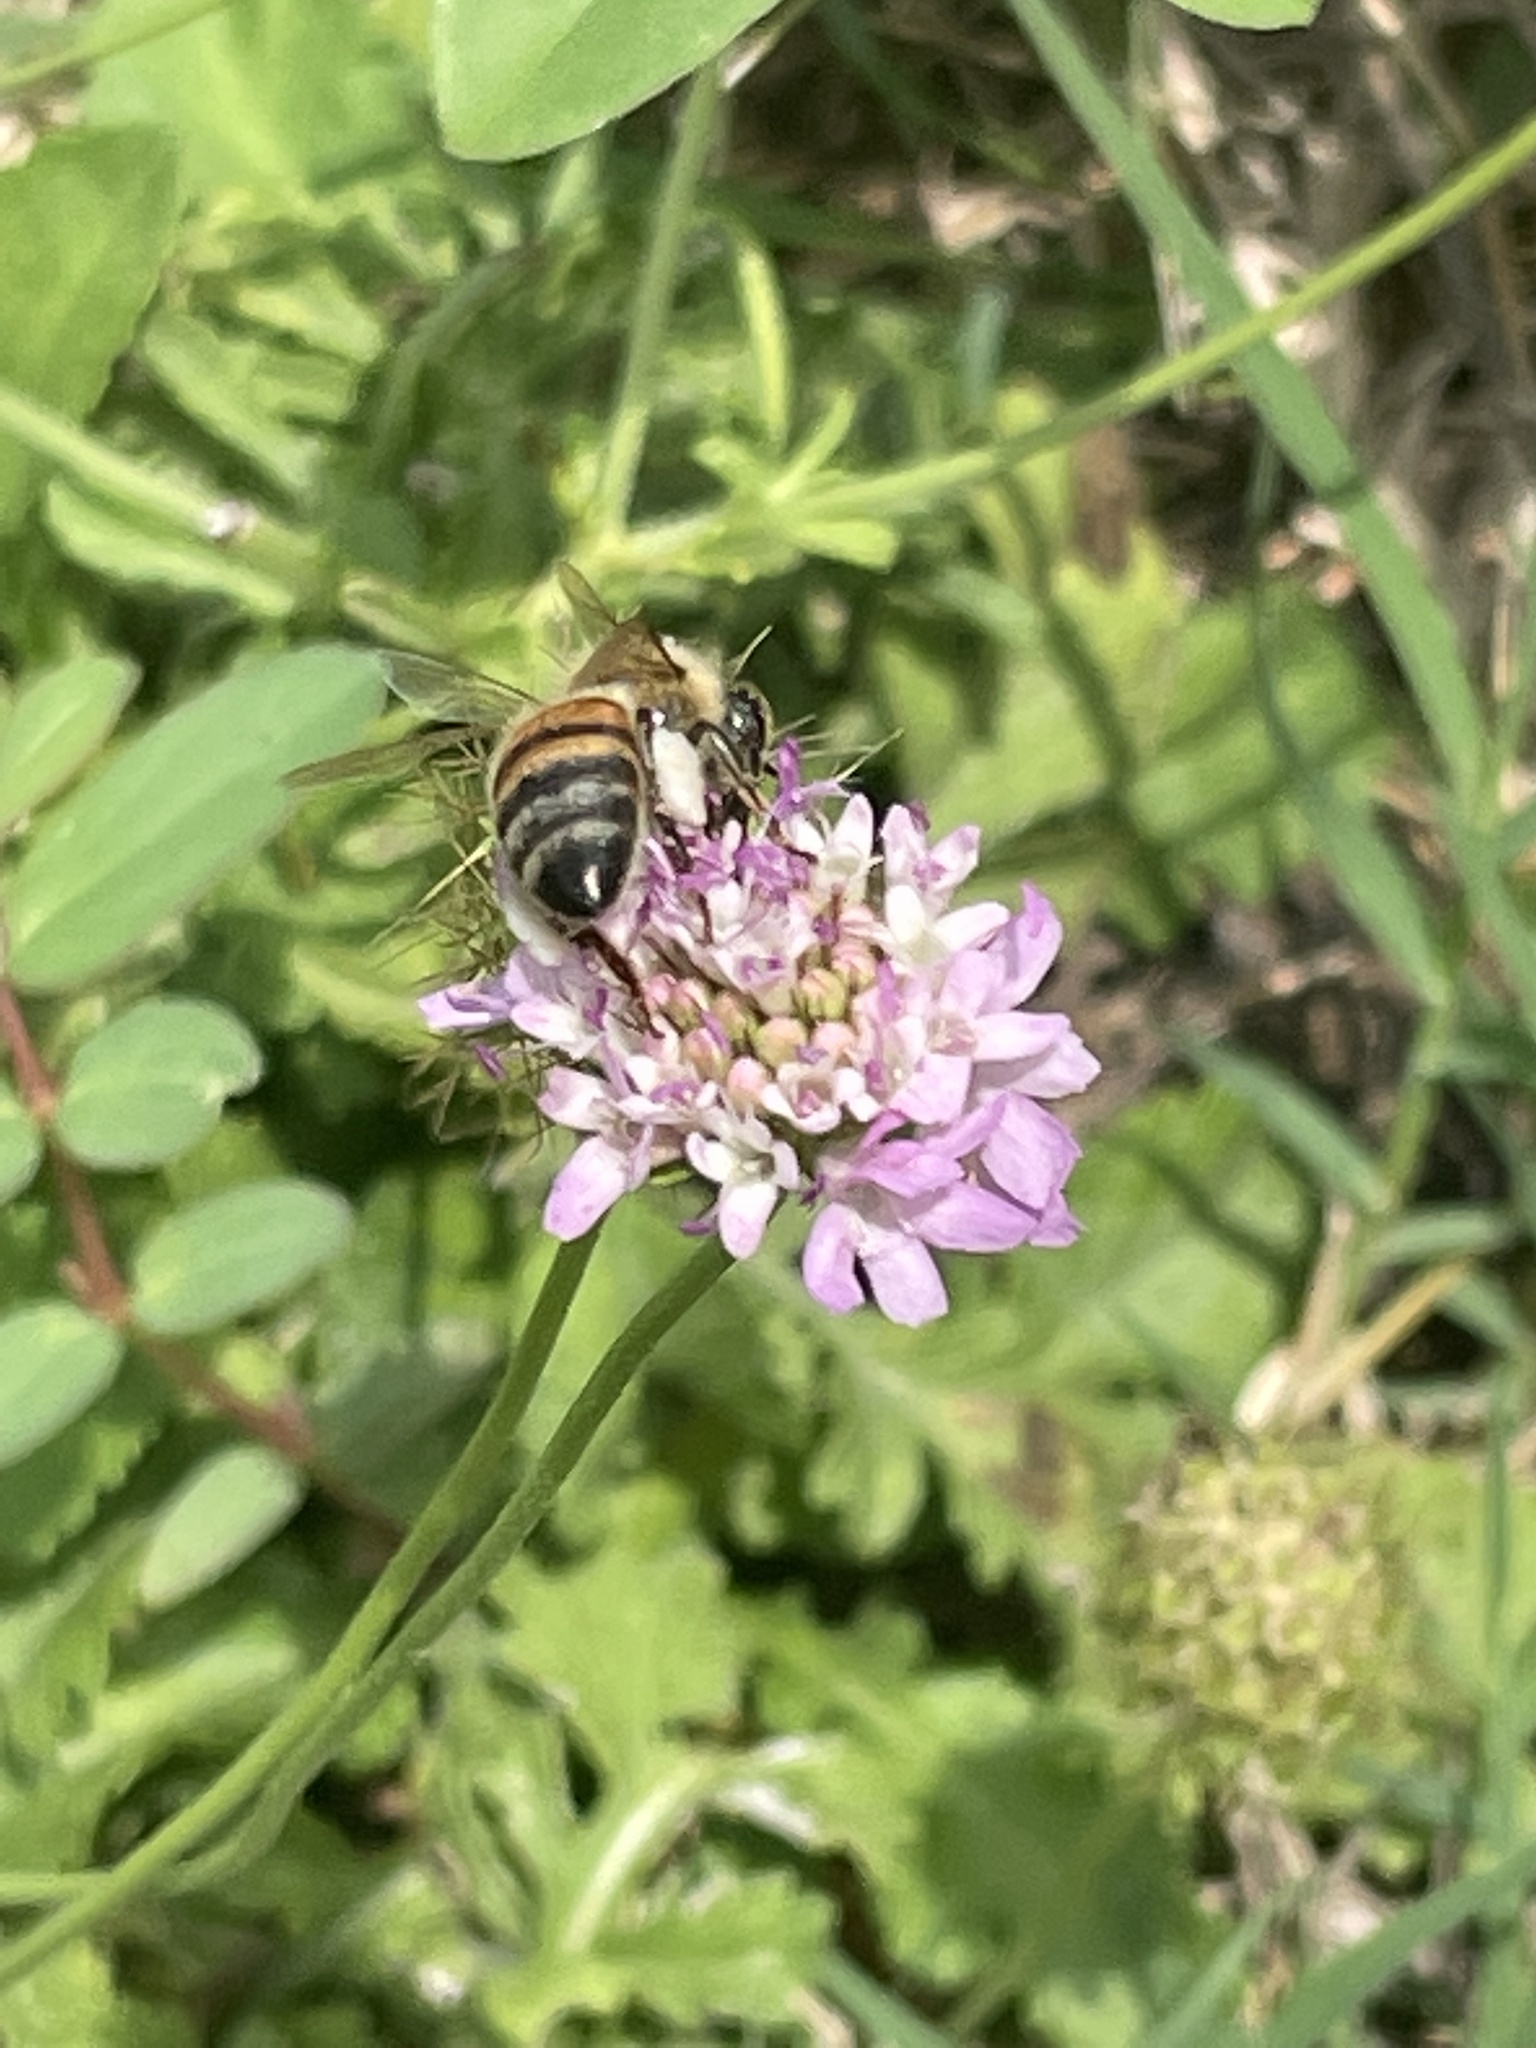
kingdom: Animalia
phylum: Arthropoda
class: Insecta
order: Hymenoptera
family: Apidae
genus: Apis
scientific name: Apis mellifera
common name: Honey bee
